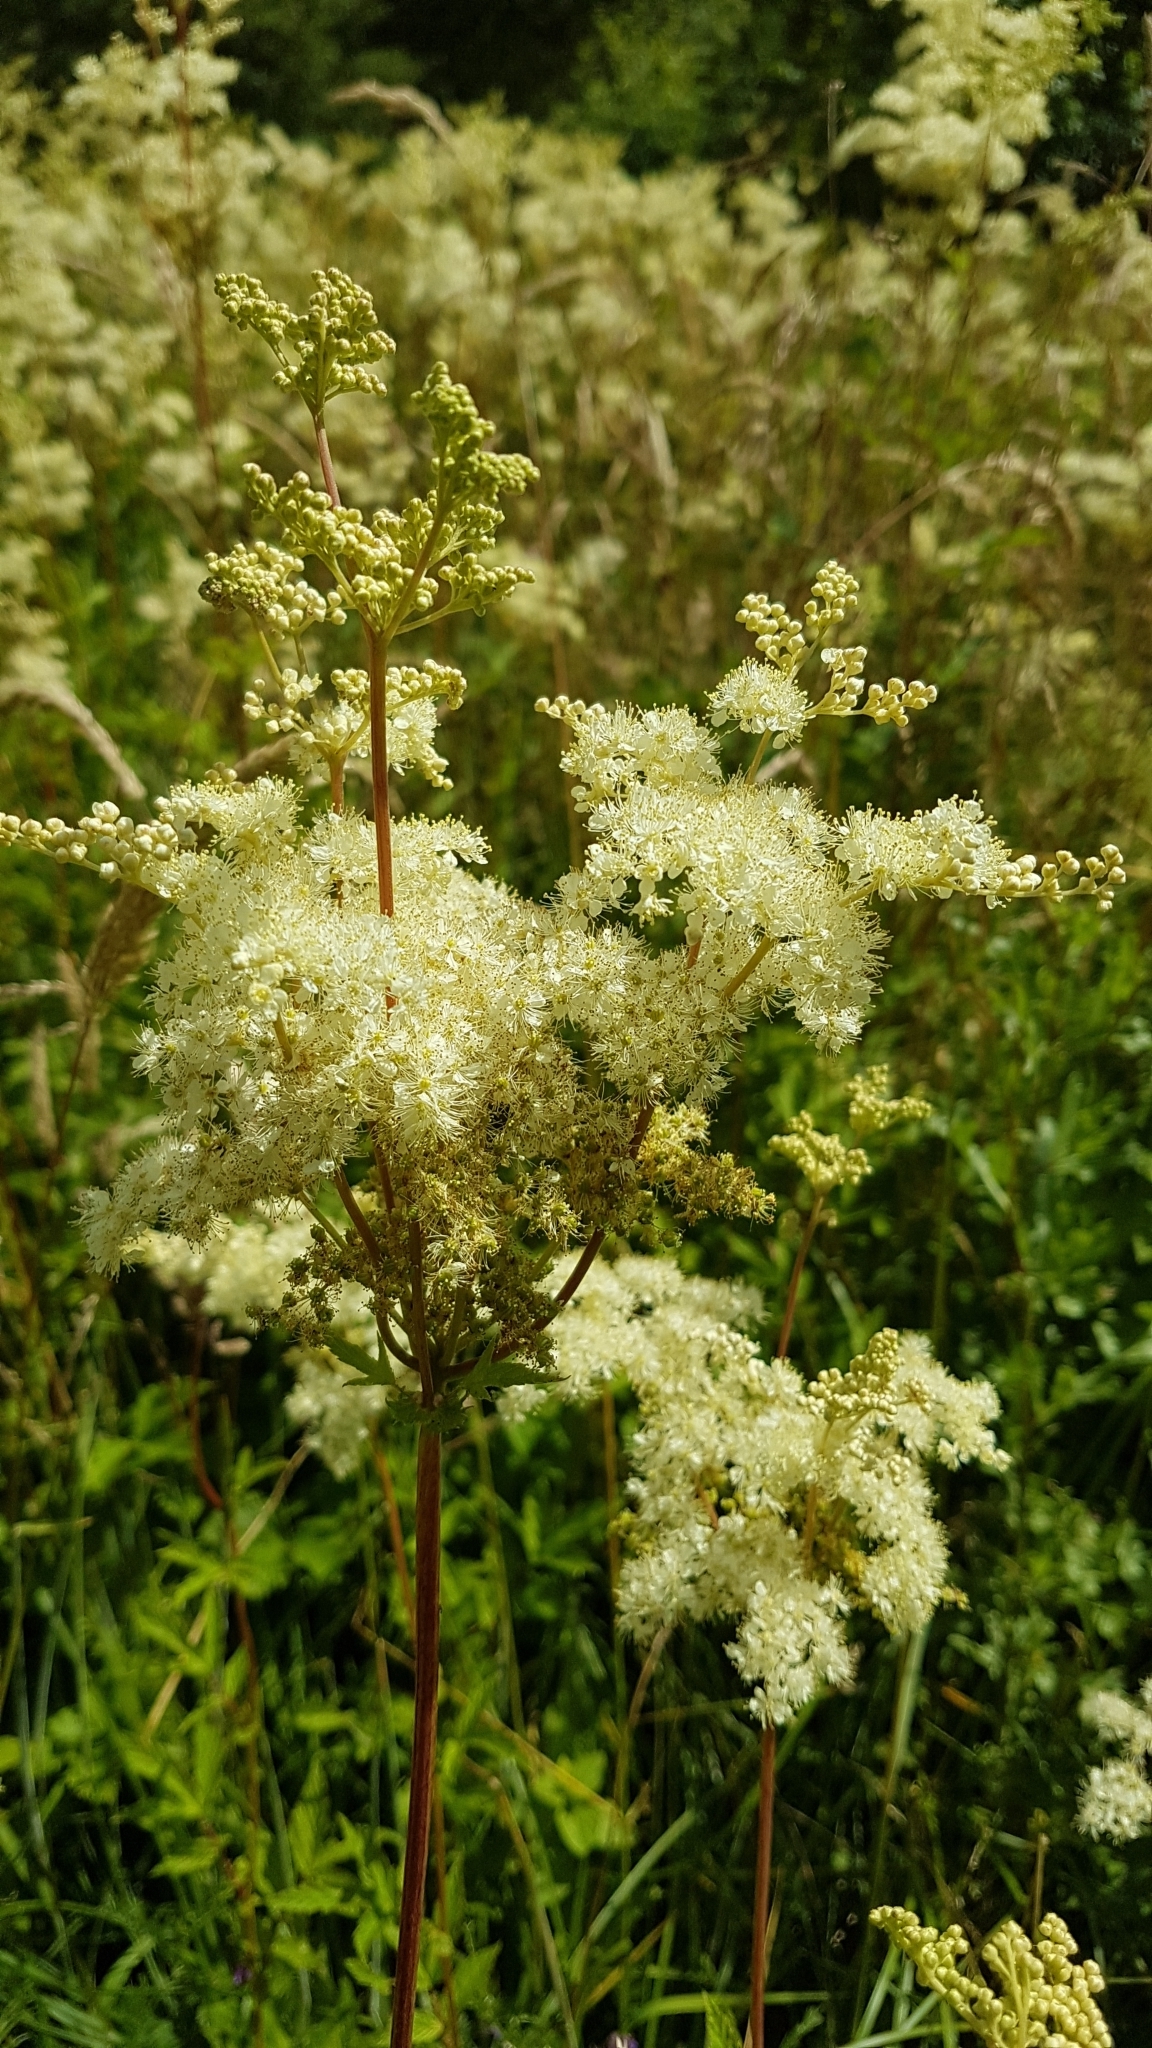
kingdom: Plantae
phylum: Tracheophyta
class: Magnoliopsida
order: Rosales
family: Rosaceae
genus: Filipendula
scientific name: Filipendula ulmaria
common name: Meadowsweet
